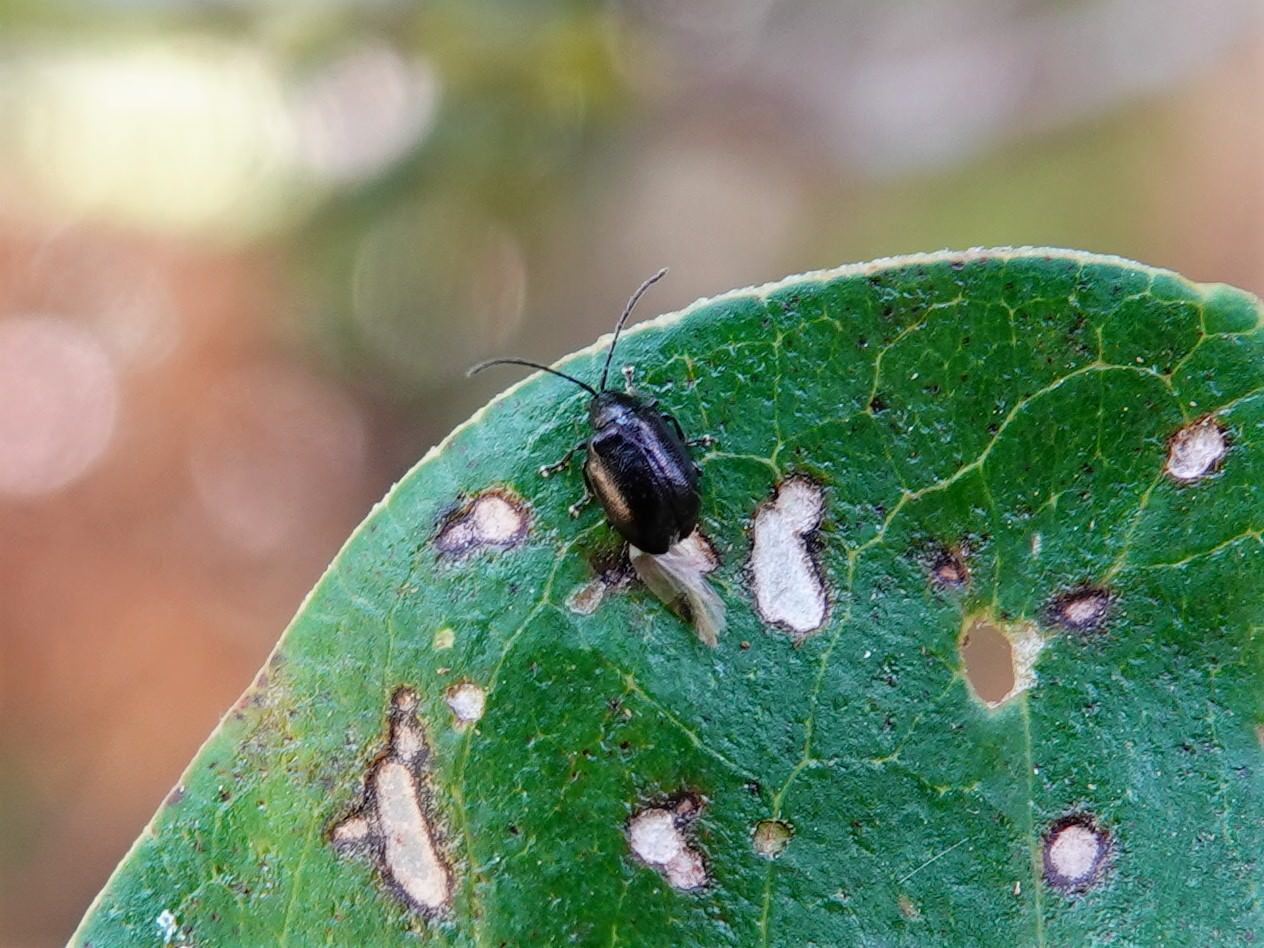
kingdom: Animalia
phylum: Arthropoda
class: Insecta
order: Coleoptera
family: Chrysomelidae
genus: Pleuraltica
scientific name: Pleuraltica cyanea
